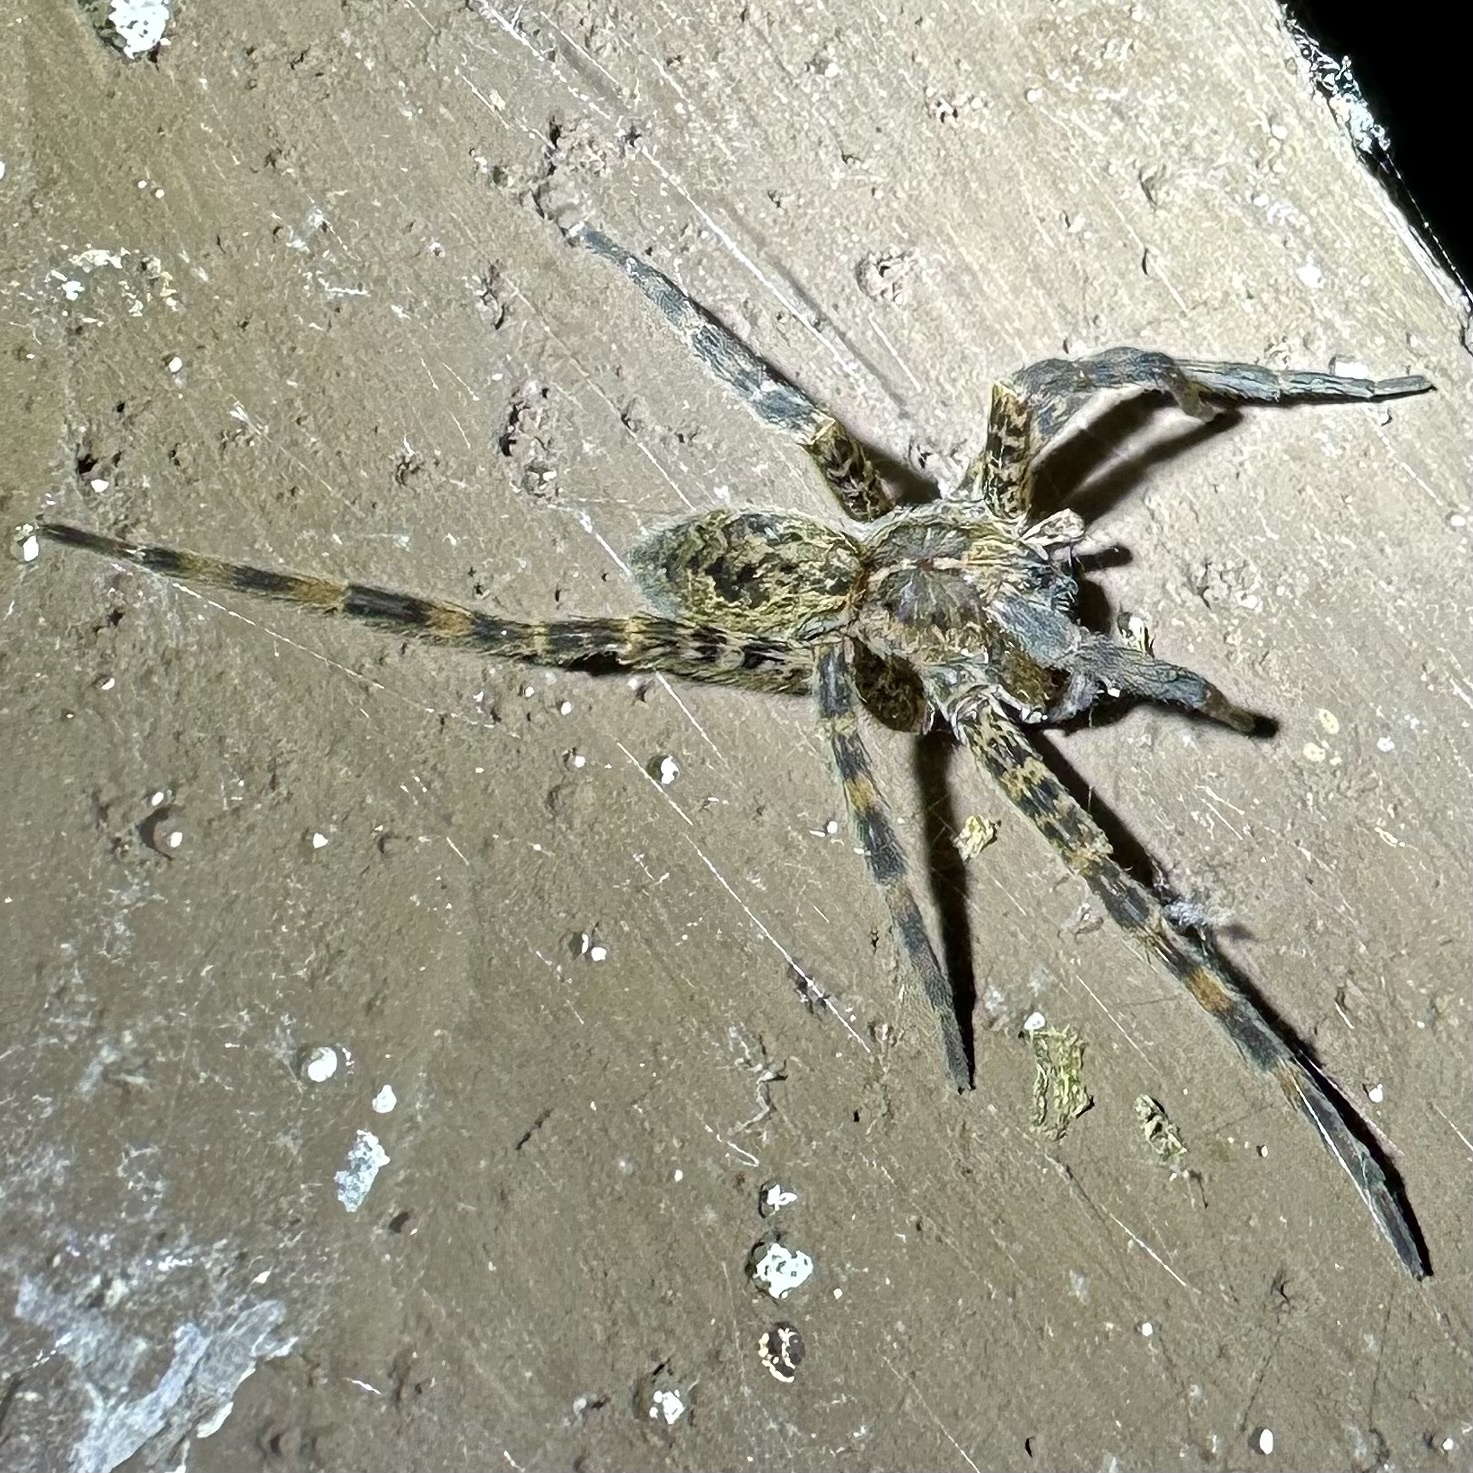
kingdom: Animalia
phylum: Arthropoda
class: Arachnida
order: Araneae
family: Pisauridae
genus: Dolomedes
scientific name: Dolomedes tenebrosus
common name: Dark fishing spider
